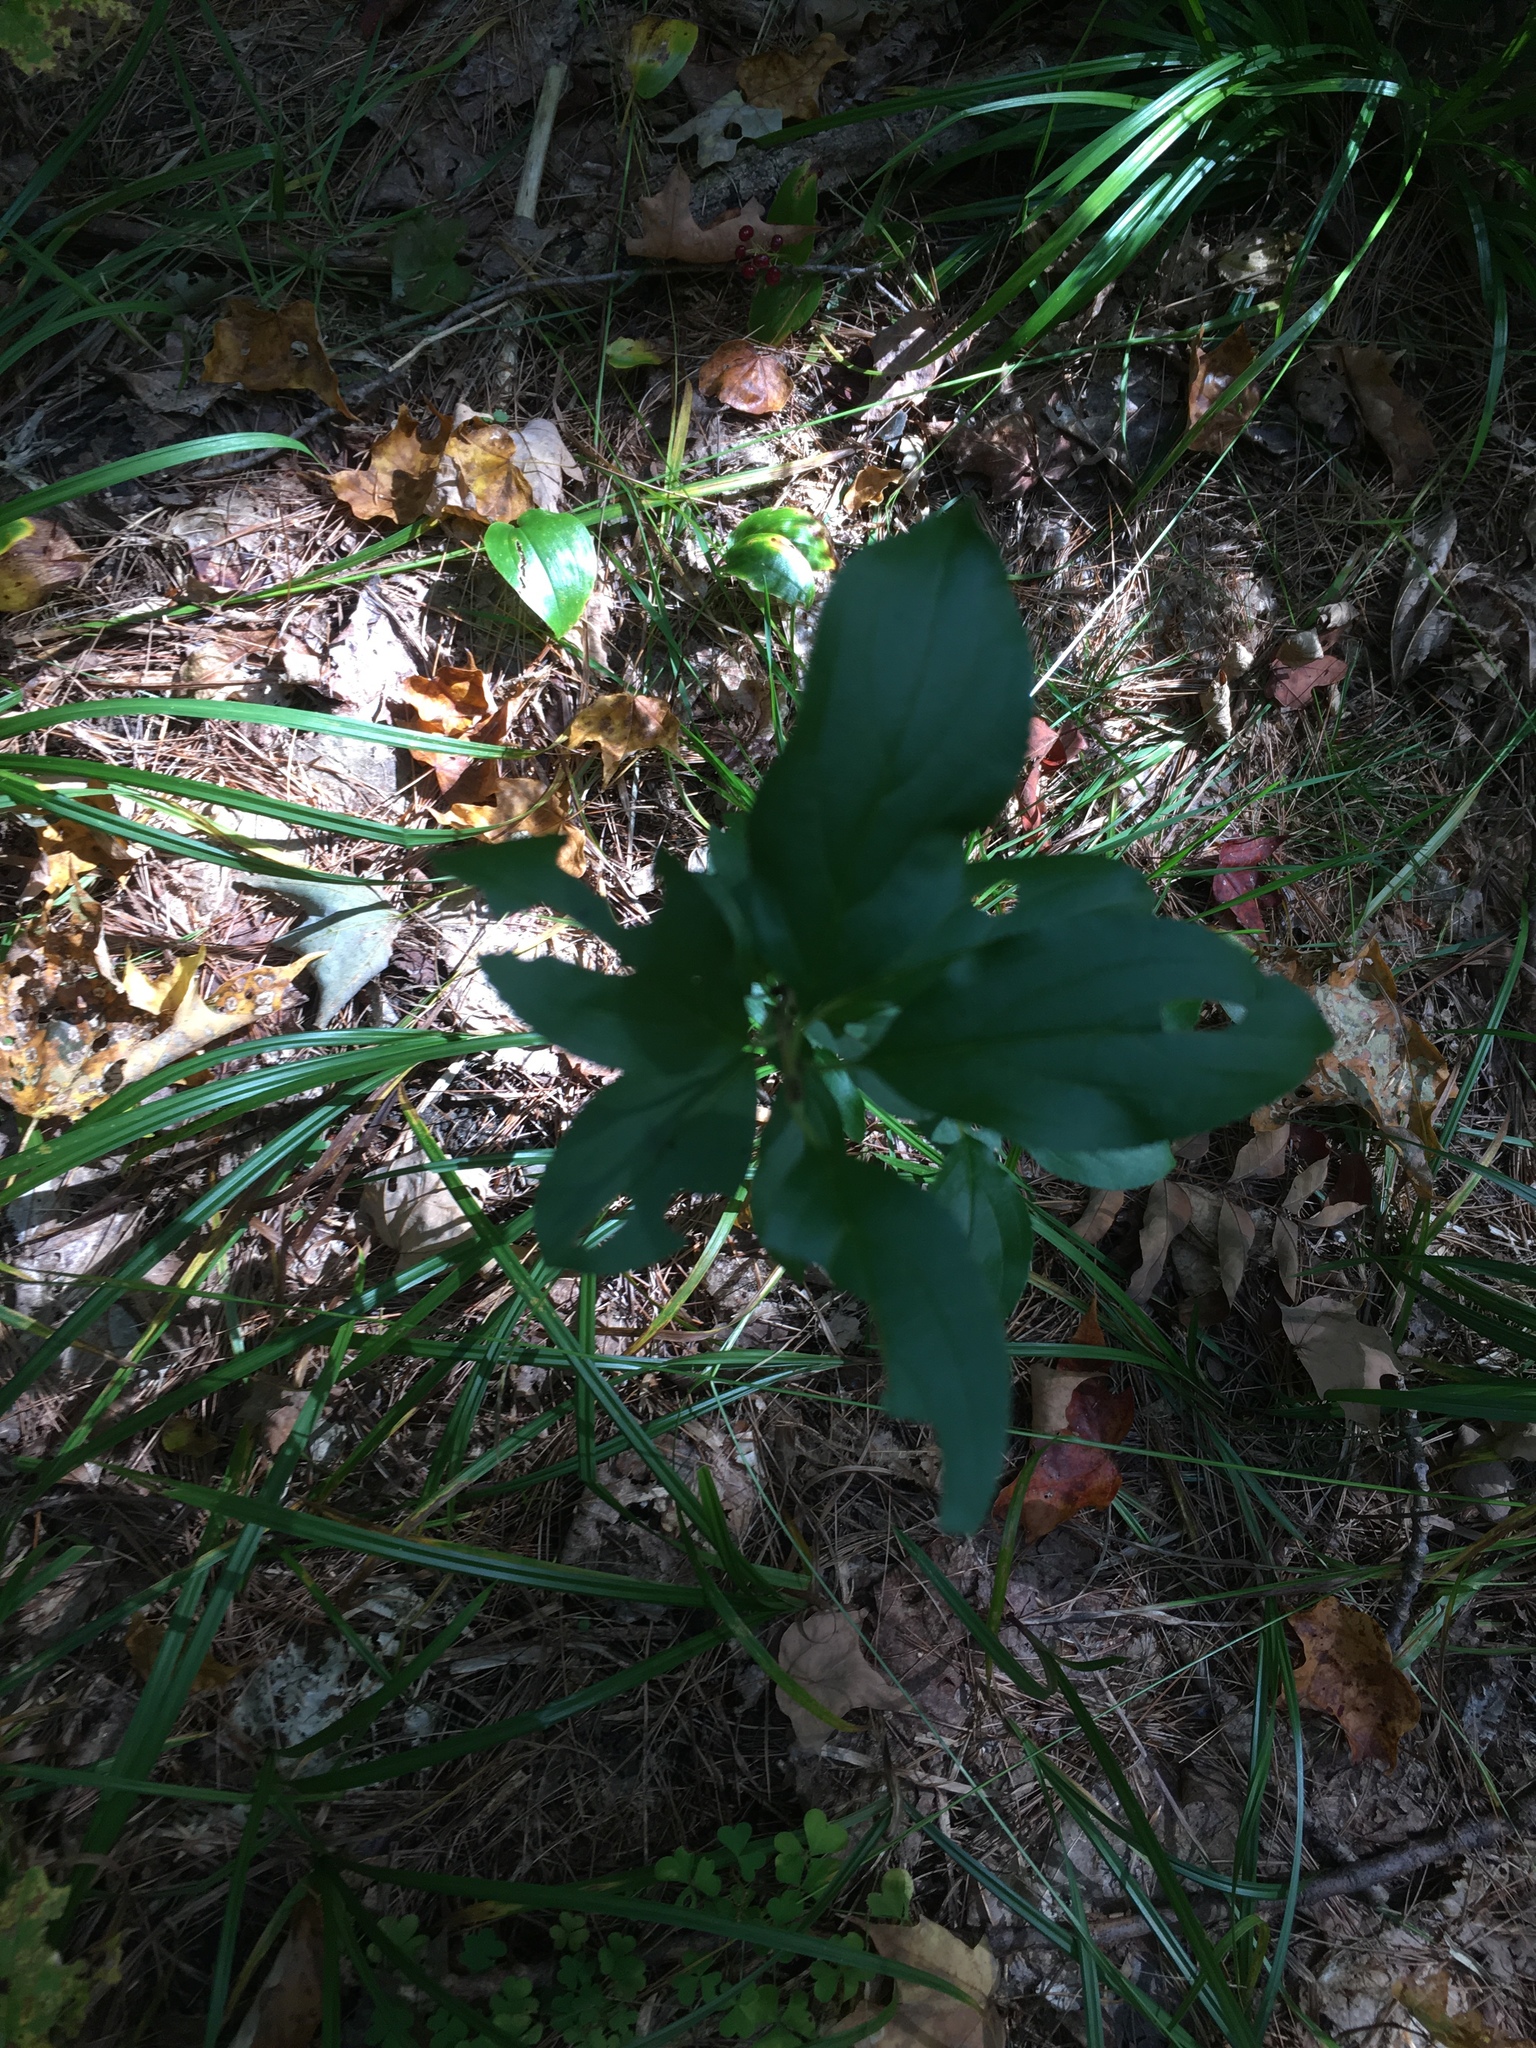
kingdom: Plantae
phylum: Tracheophyta
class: Magnoliopsida
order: Rosales
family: Rhamnaceae
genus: Rhamnus
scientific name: Rhamnus cathartica
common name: Common buckthorn
